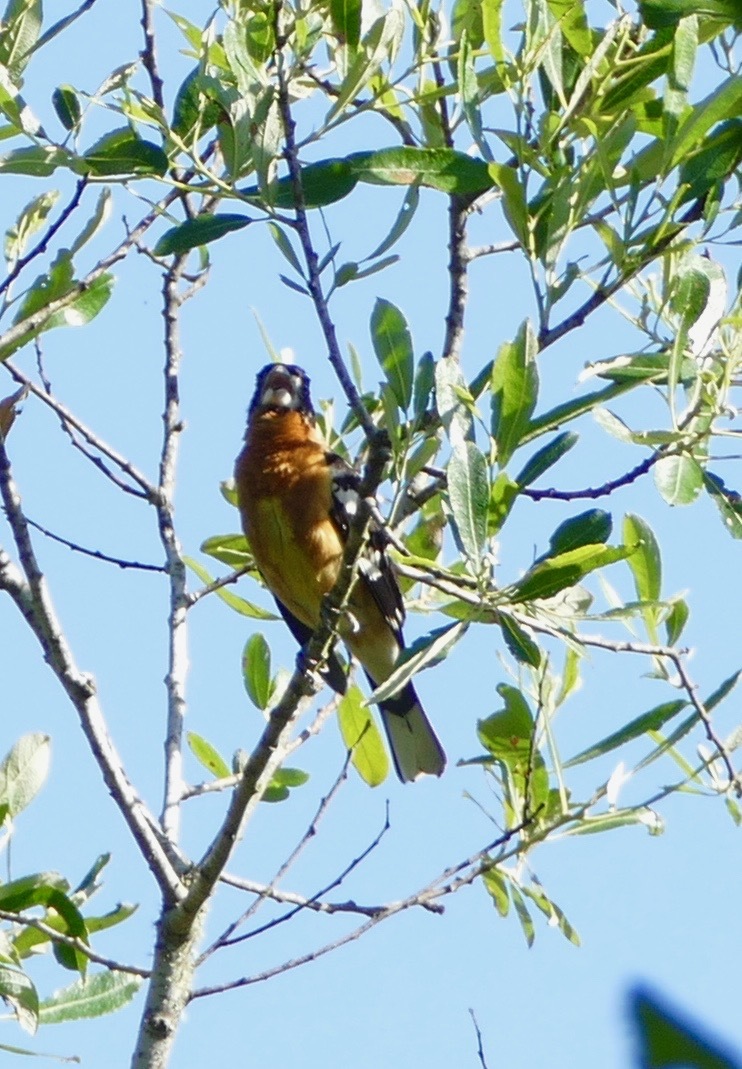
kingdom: Animalia
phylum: Chordata
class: Aves
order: Passeriformes
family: Cardinalidae
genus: Pheucticus
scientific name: Pheucticus melanocephalus
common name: Black-headed grosbeak
